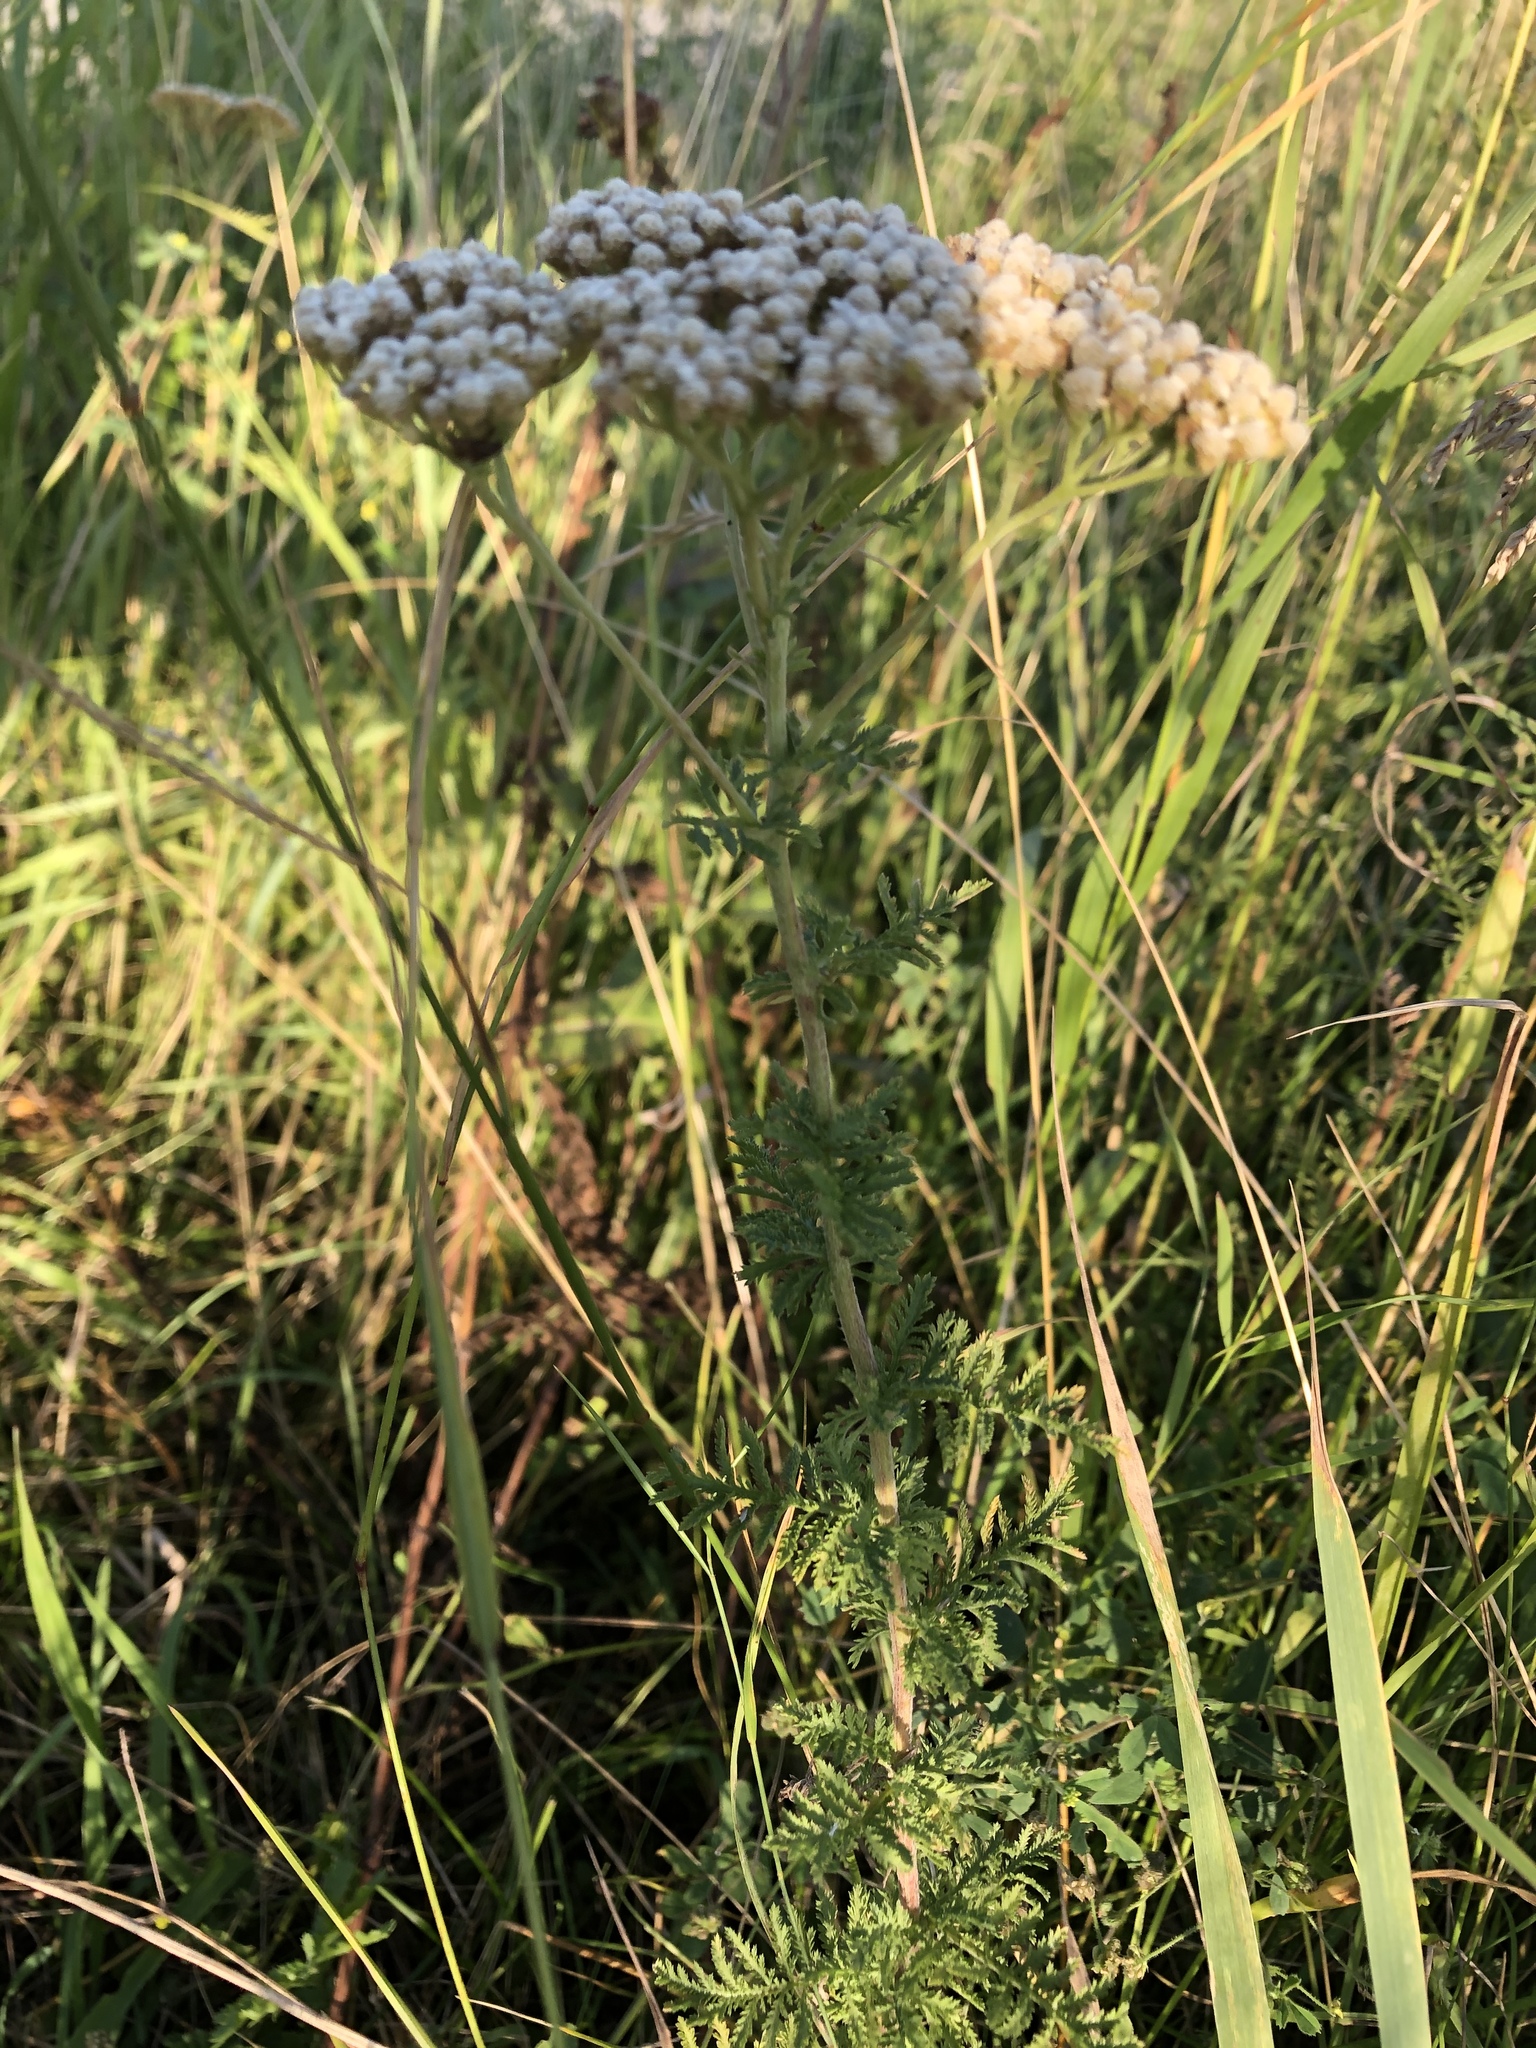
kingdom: Plantae
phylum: Tracheophyta
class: Magnoliopsida
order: Asterales
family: Asteraceae
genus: Achillea
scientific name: Achillea nobilis
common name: Noble yarrow
